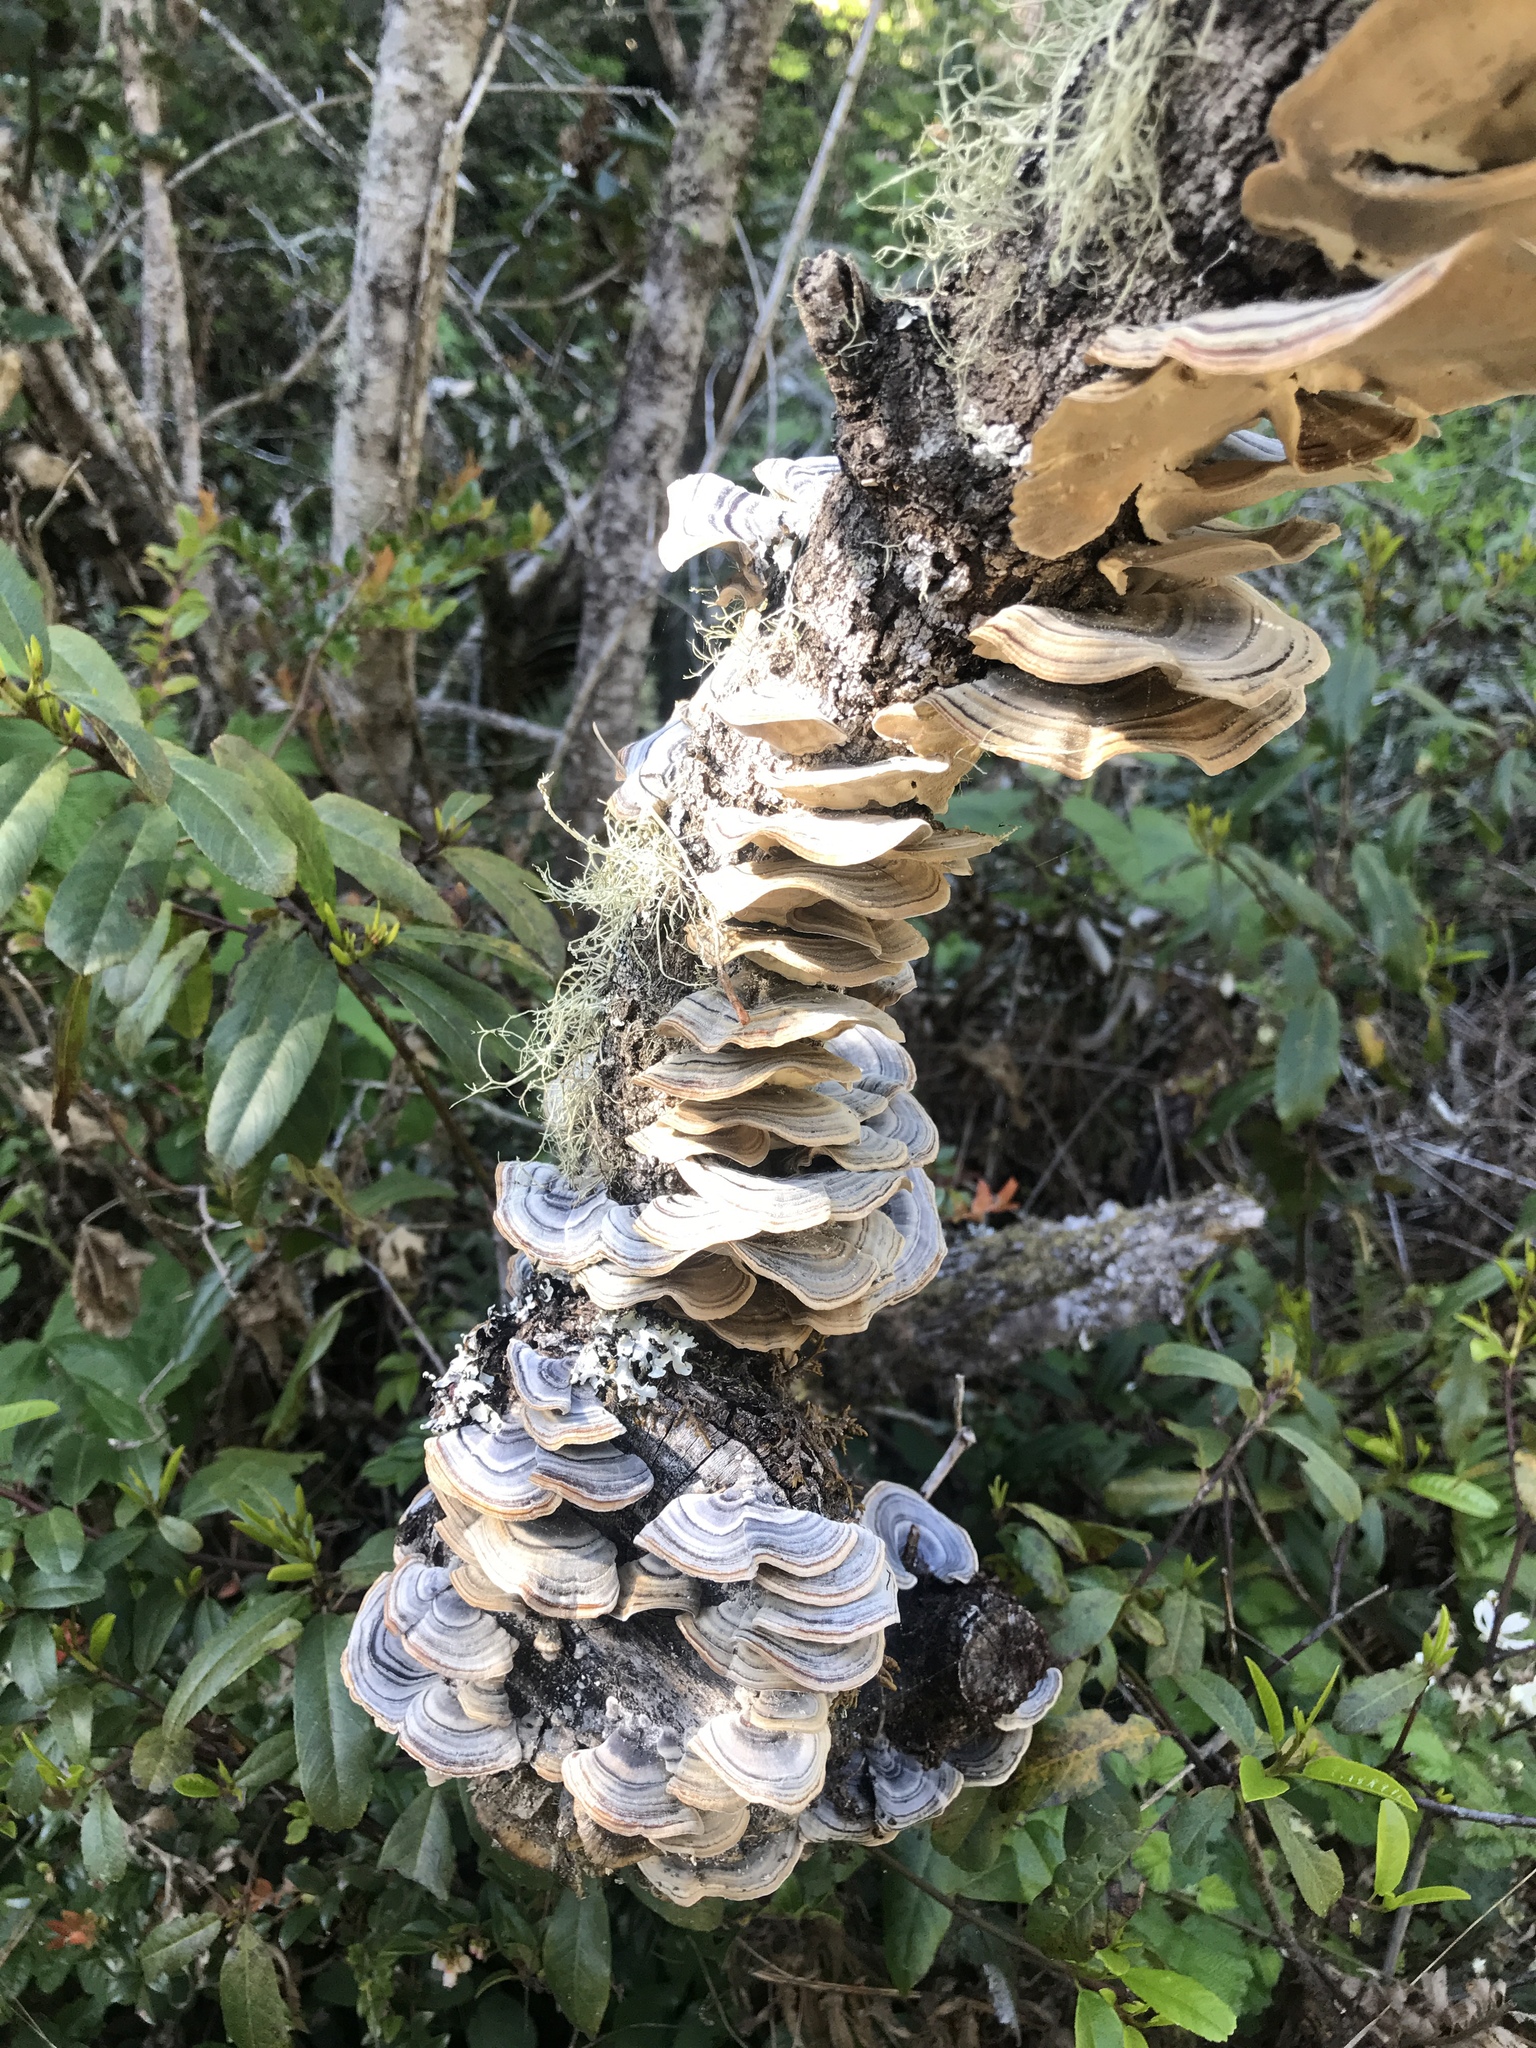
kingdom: Fungi
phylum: Basidiomycota
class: Agaricomycetes
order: Polyporales
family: Polyporaceae
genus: Trametes
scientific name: Trametes versicolor
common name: Turkeytail
